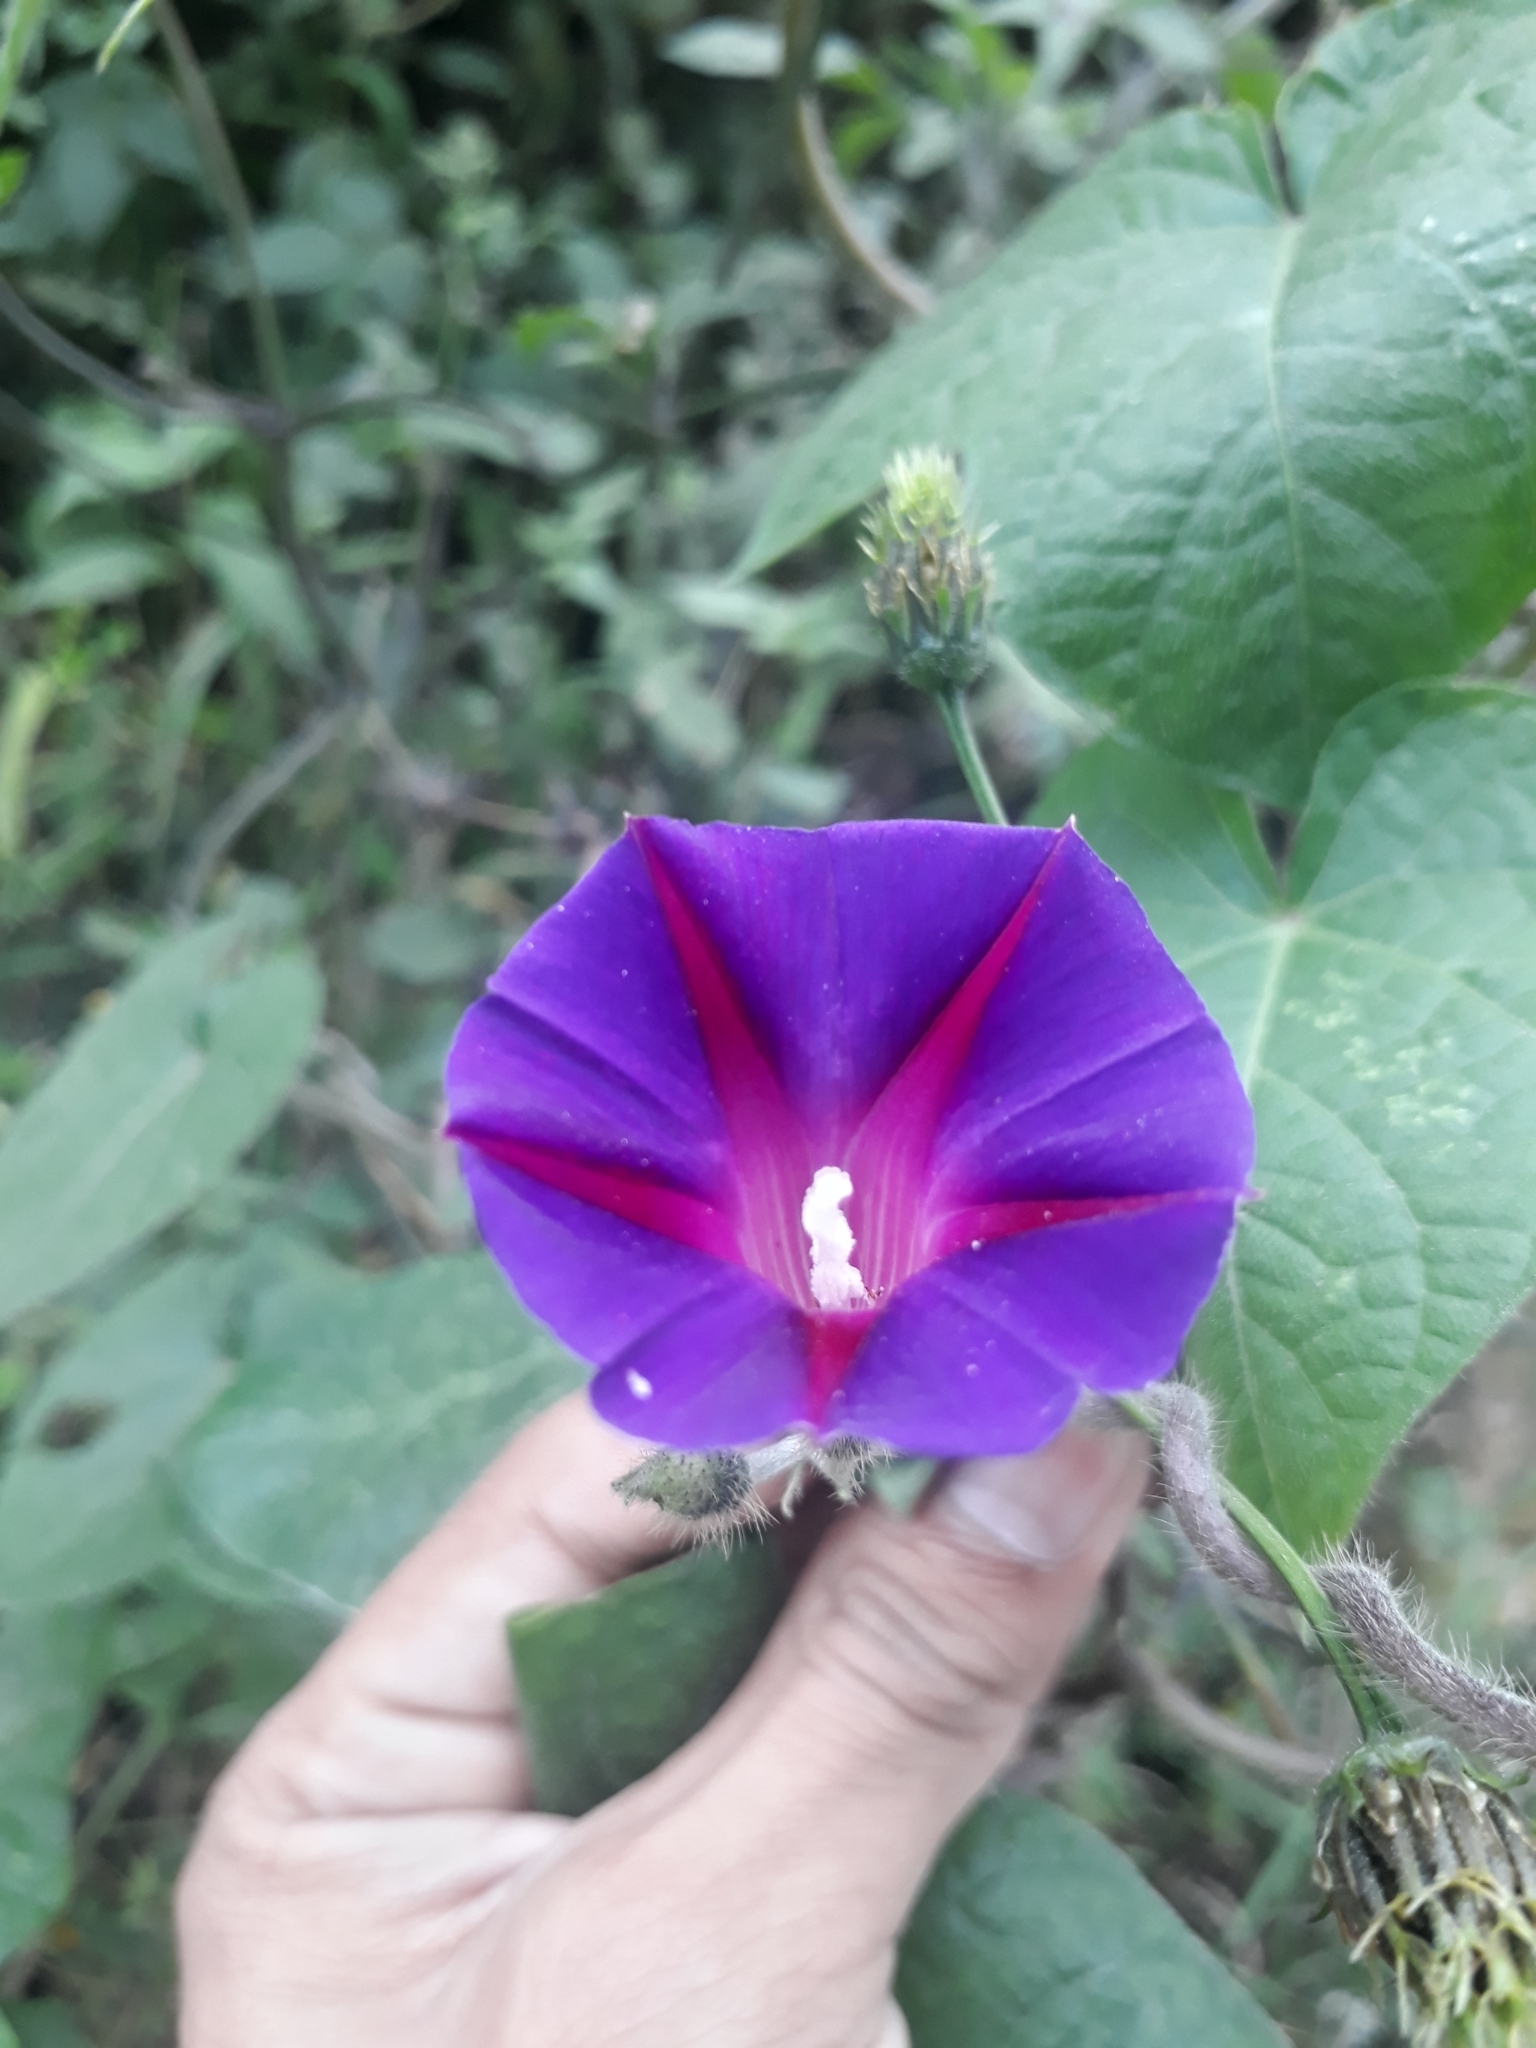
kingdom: Plantae
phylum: Tracheophyta
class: Magnoliopsida
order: Solanales
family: Convolvulaceae
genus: Ipomoea
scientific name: Ipomoea purpurea
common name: Common morning-glory
